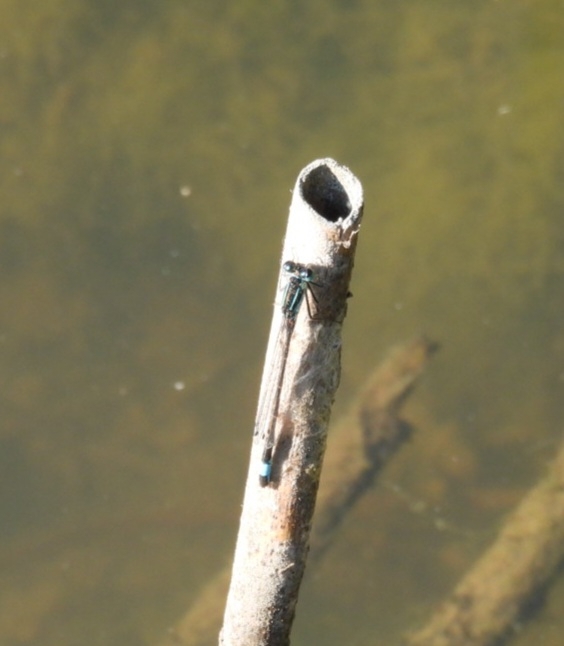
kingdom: Animalia
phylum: Arthropoda
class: Insecta
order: Odonata
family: Coenagrionidae
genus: Ischnura
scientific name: Ischnura elegans
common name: Blue-tailed damselfly
